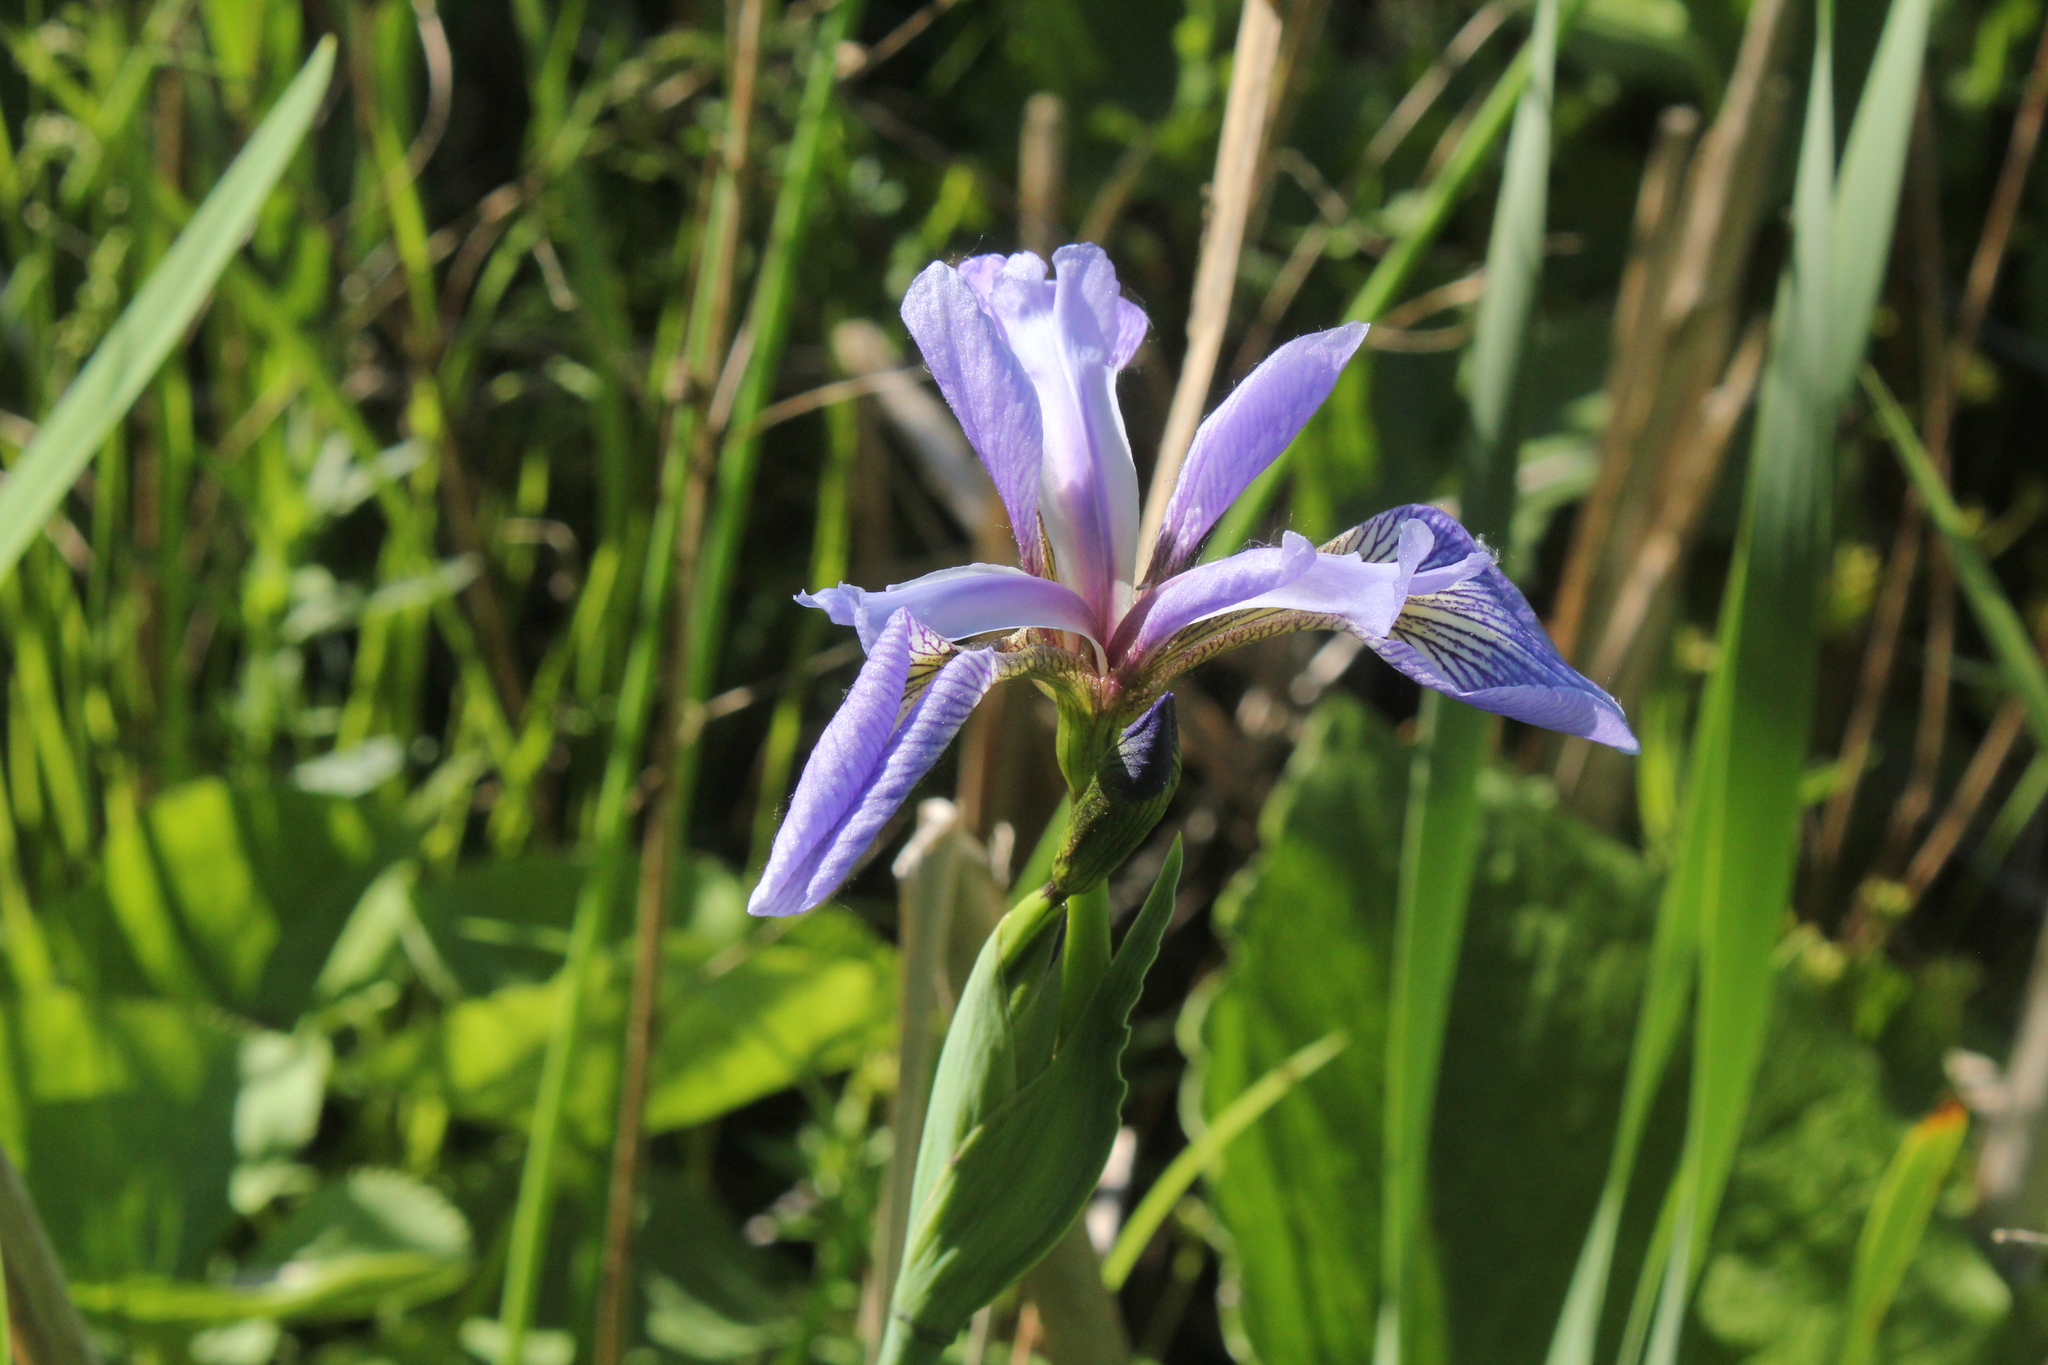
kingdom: Plantae
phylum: Tracheophyta
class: Liliopsida
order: Asparagales
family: Iridaceae
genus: Iris
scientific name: Iris versicolor
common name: Purple iris
